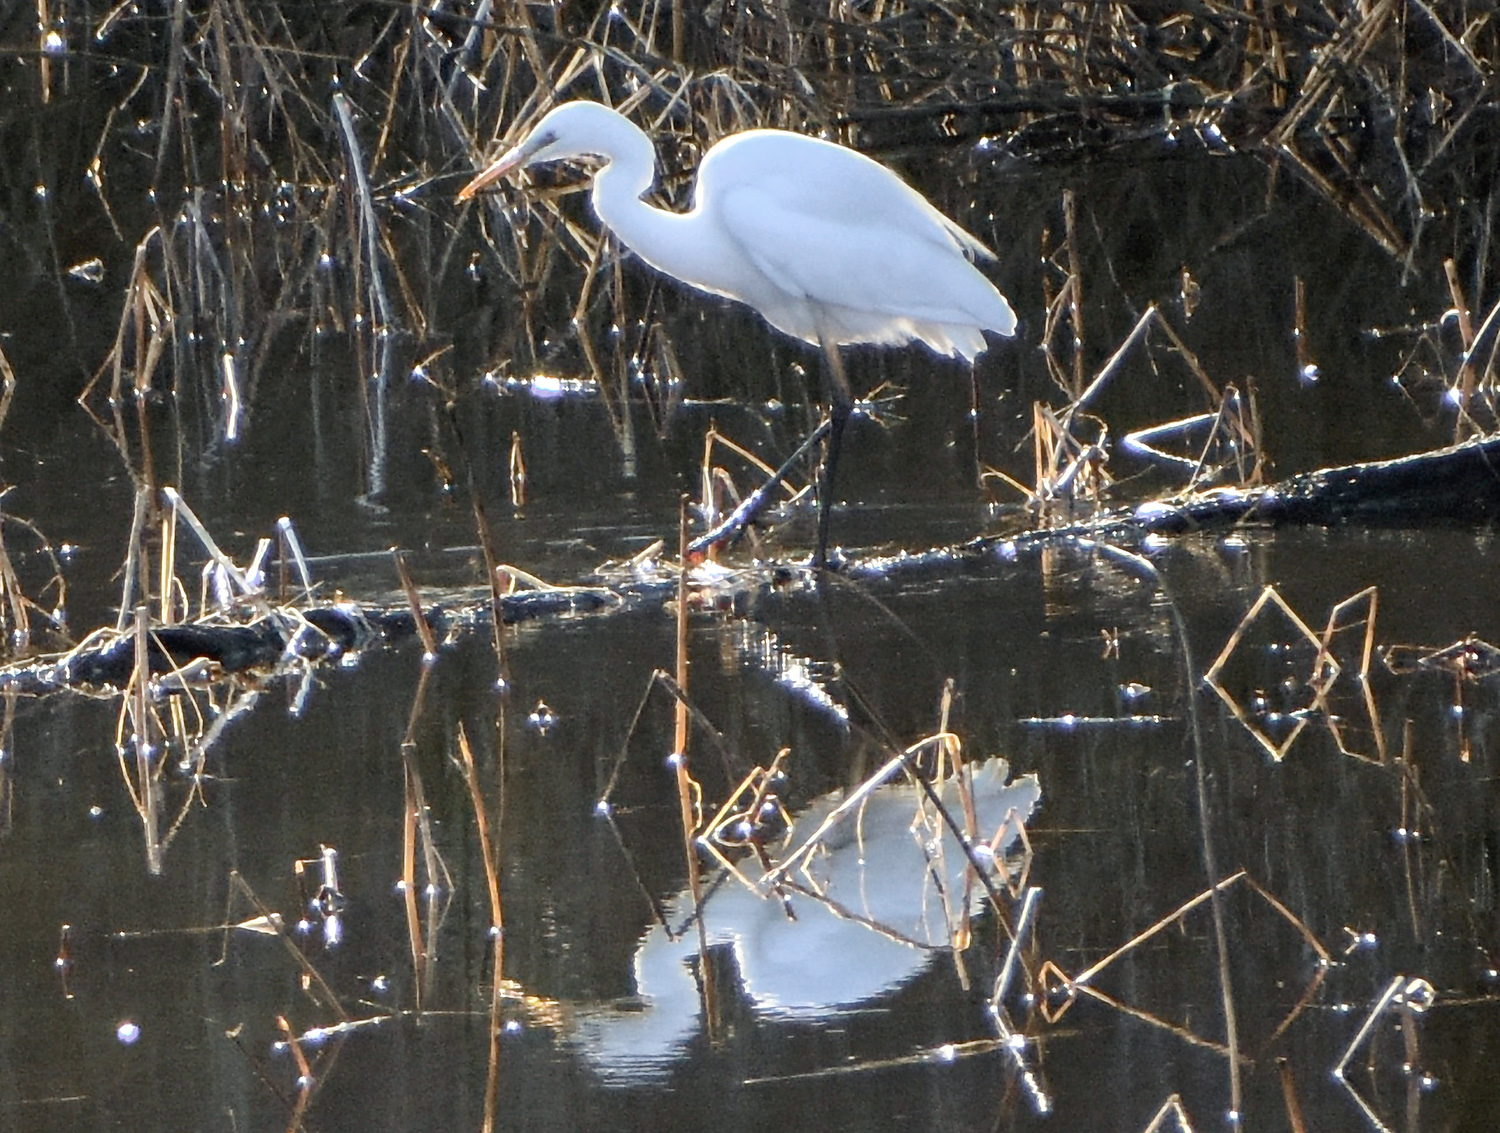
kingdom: Animalia
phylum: Chordata
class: Aves
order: Pelecaniformes
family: Ardeidae
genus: Ardea
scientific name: Ardea alba
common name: Great egret
